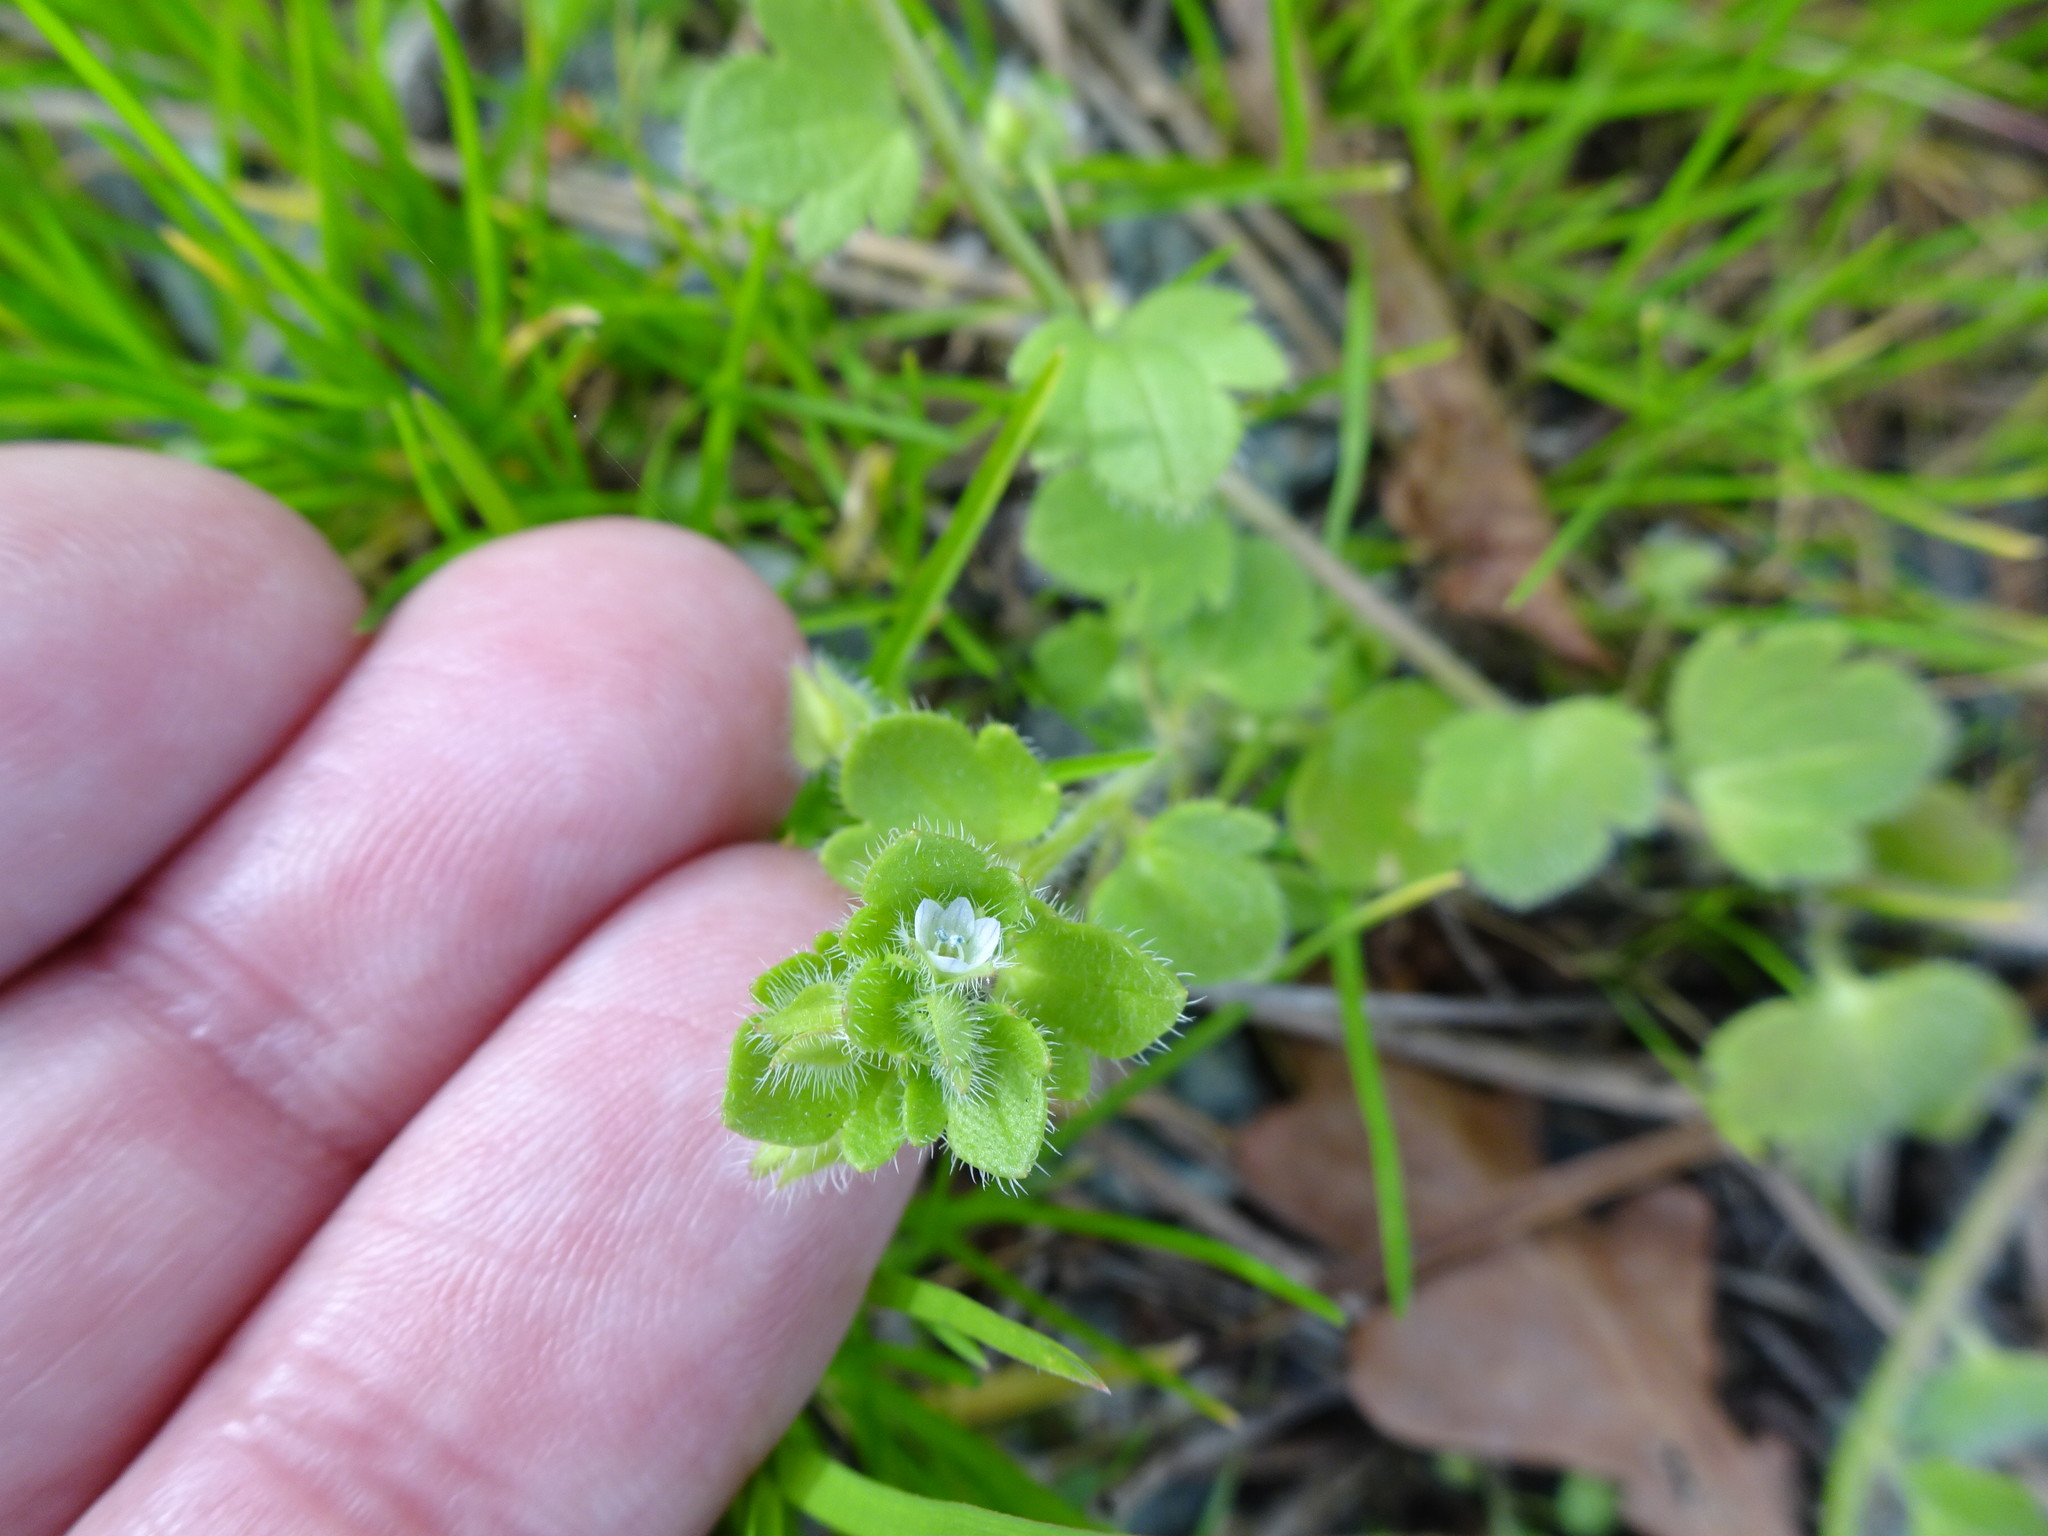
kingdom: Plantae
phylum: Tracheophyta
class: Magnoliopsida
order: Lamiales
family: Plantaginaceae
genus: Veronica
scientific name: Veronica sublobata
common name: False ivy-leaved speedwell
